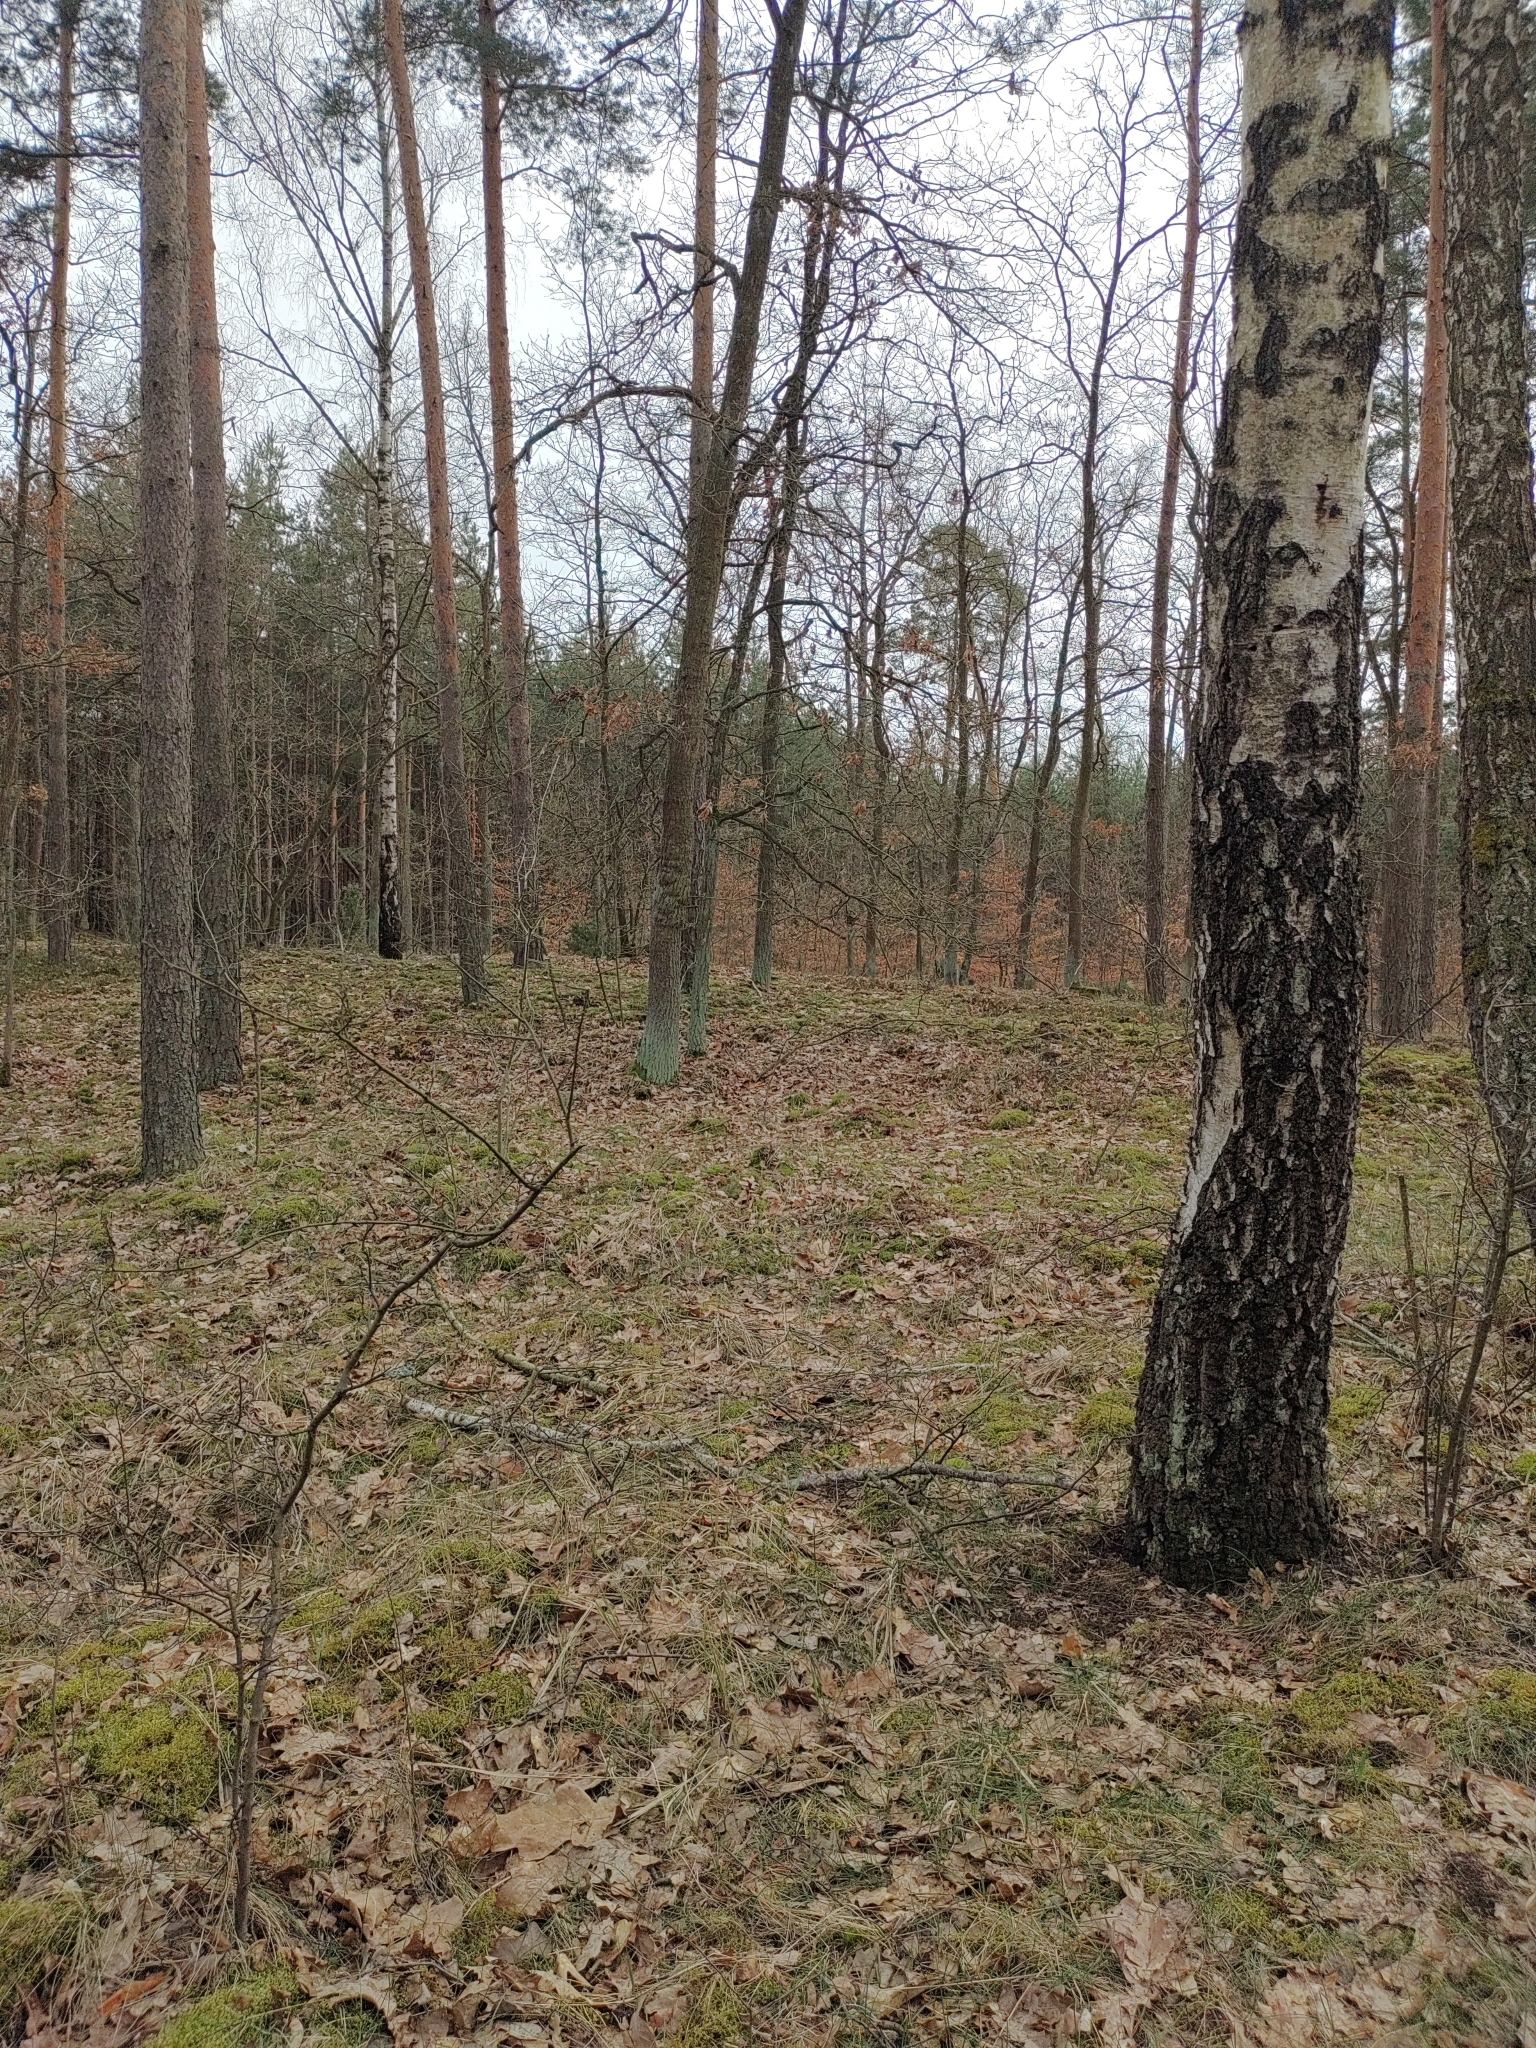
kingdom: Animalia
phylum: Chordata
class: Aves
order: Passeriformes
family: Paridae
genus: Parus
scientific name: Parus major
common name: Great tit
